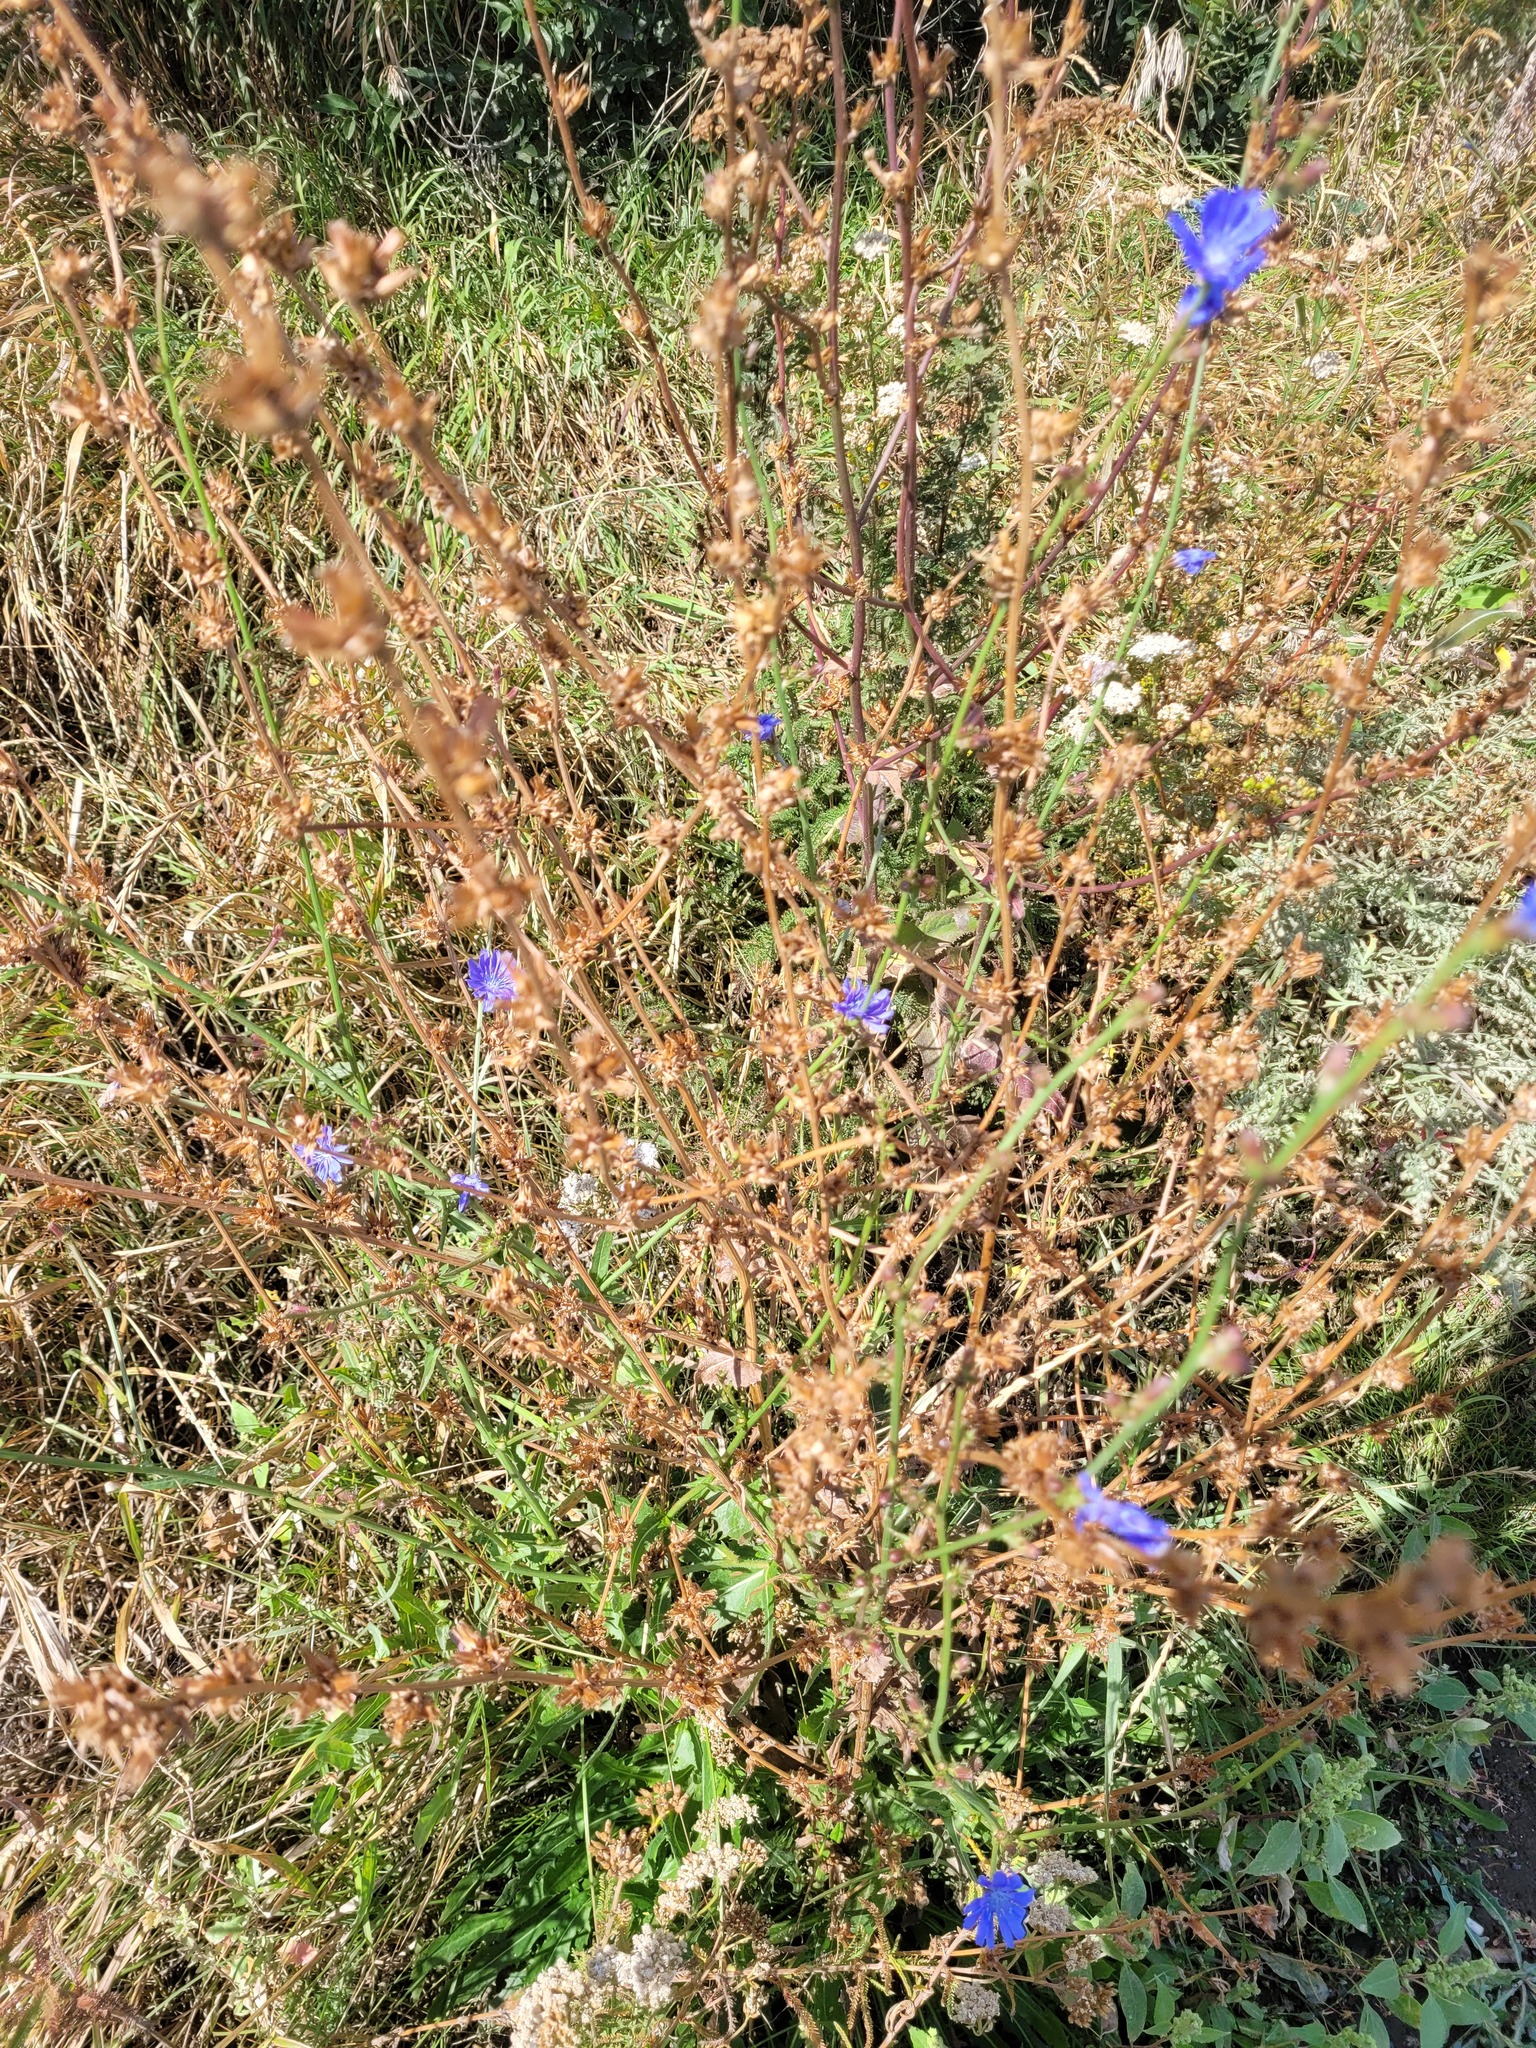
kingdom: Plantae
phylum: Tracheophyta
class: Magnoliopsida
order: Asterales
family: Asteraceae
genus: Cichorium
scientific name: Cichorium intybus
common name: Chicory
